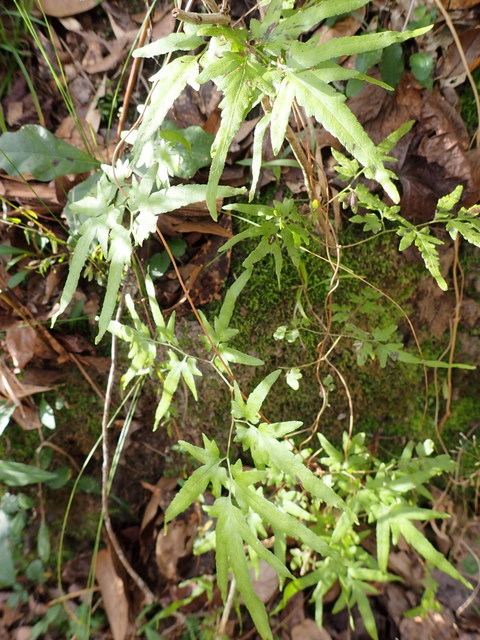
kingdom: Plantae
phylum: Tracheophyta
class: Polypodiopsida
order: Schizaeales
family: Lygodiaceae
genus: Lygodium
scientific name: Lygodium japonicum
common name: Japanese climbing fern
